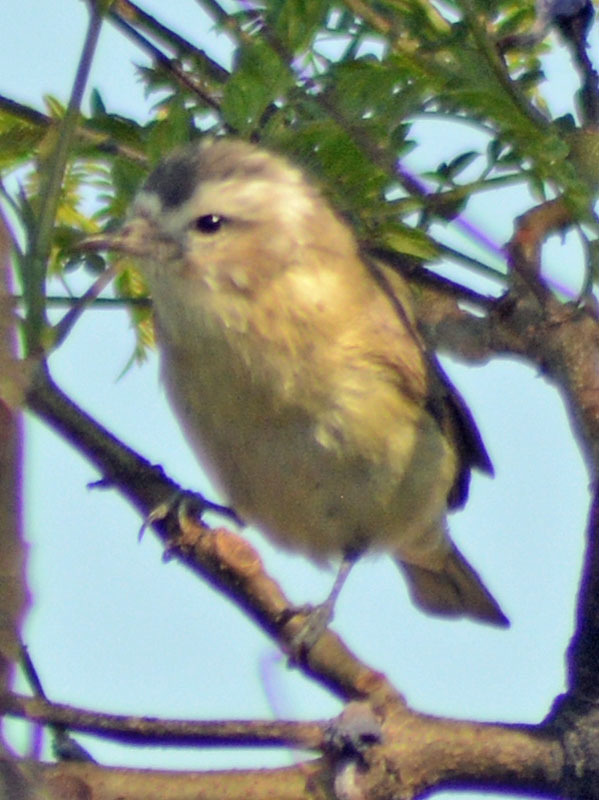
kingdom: Animalia
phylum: Chordata
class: Aves
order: Passeriformes
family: Vireonidae
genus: Vireo
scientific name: Vireo gilvus
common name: Warbling vireo
